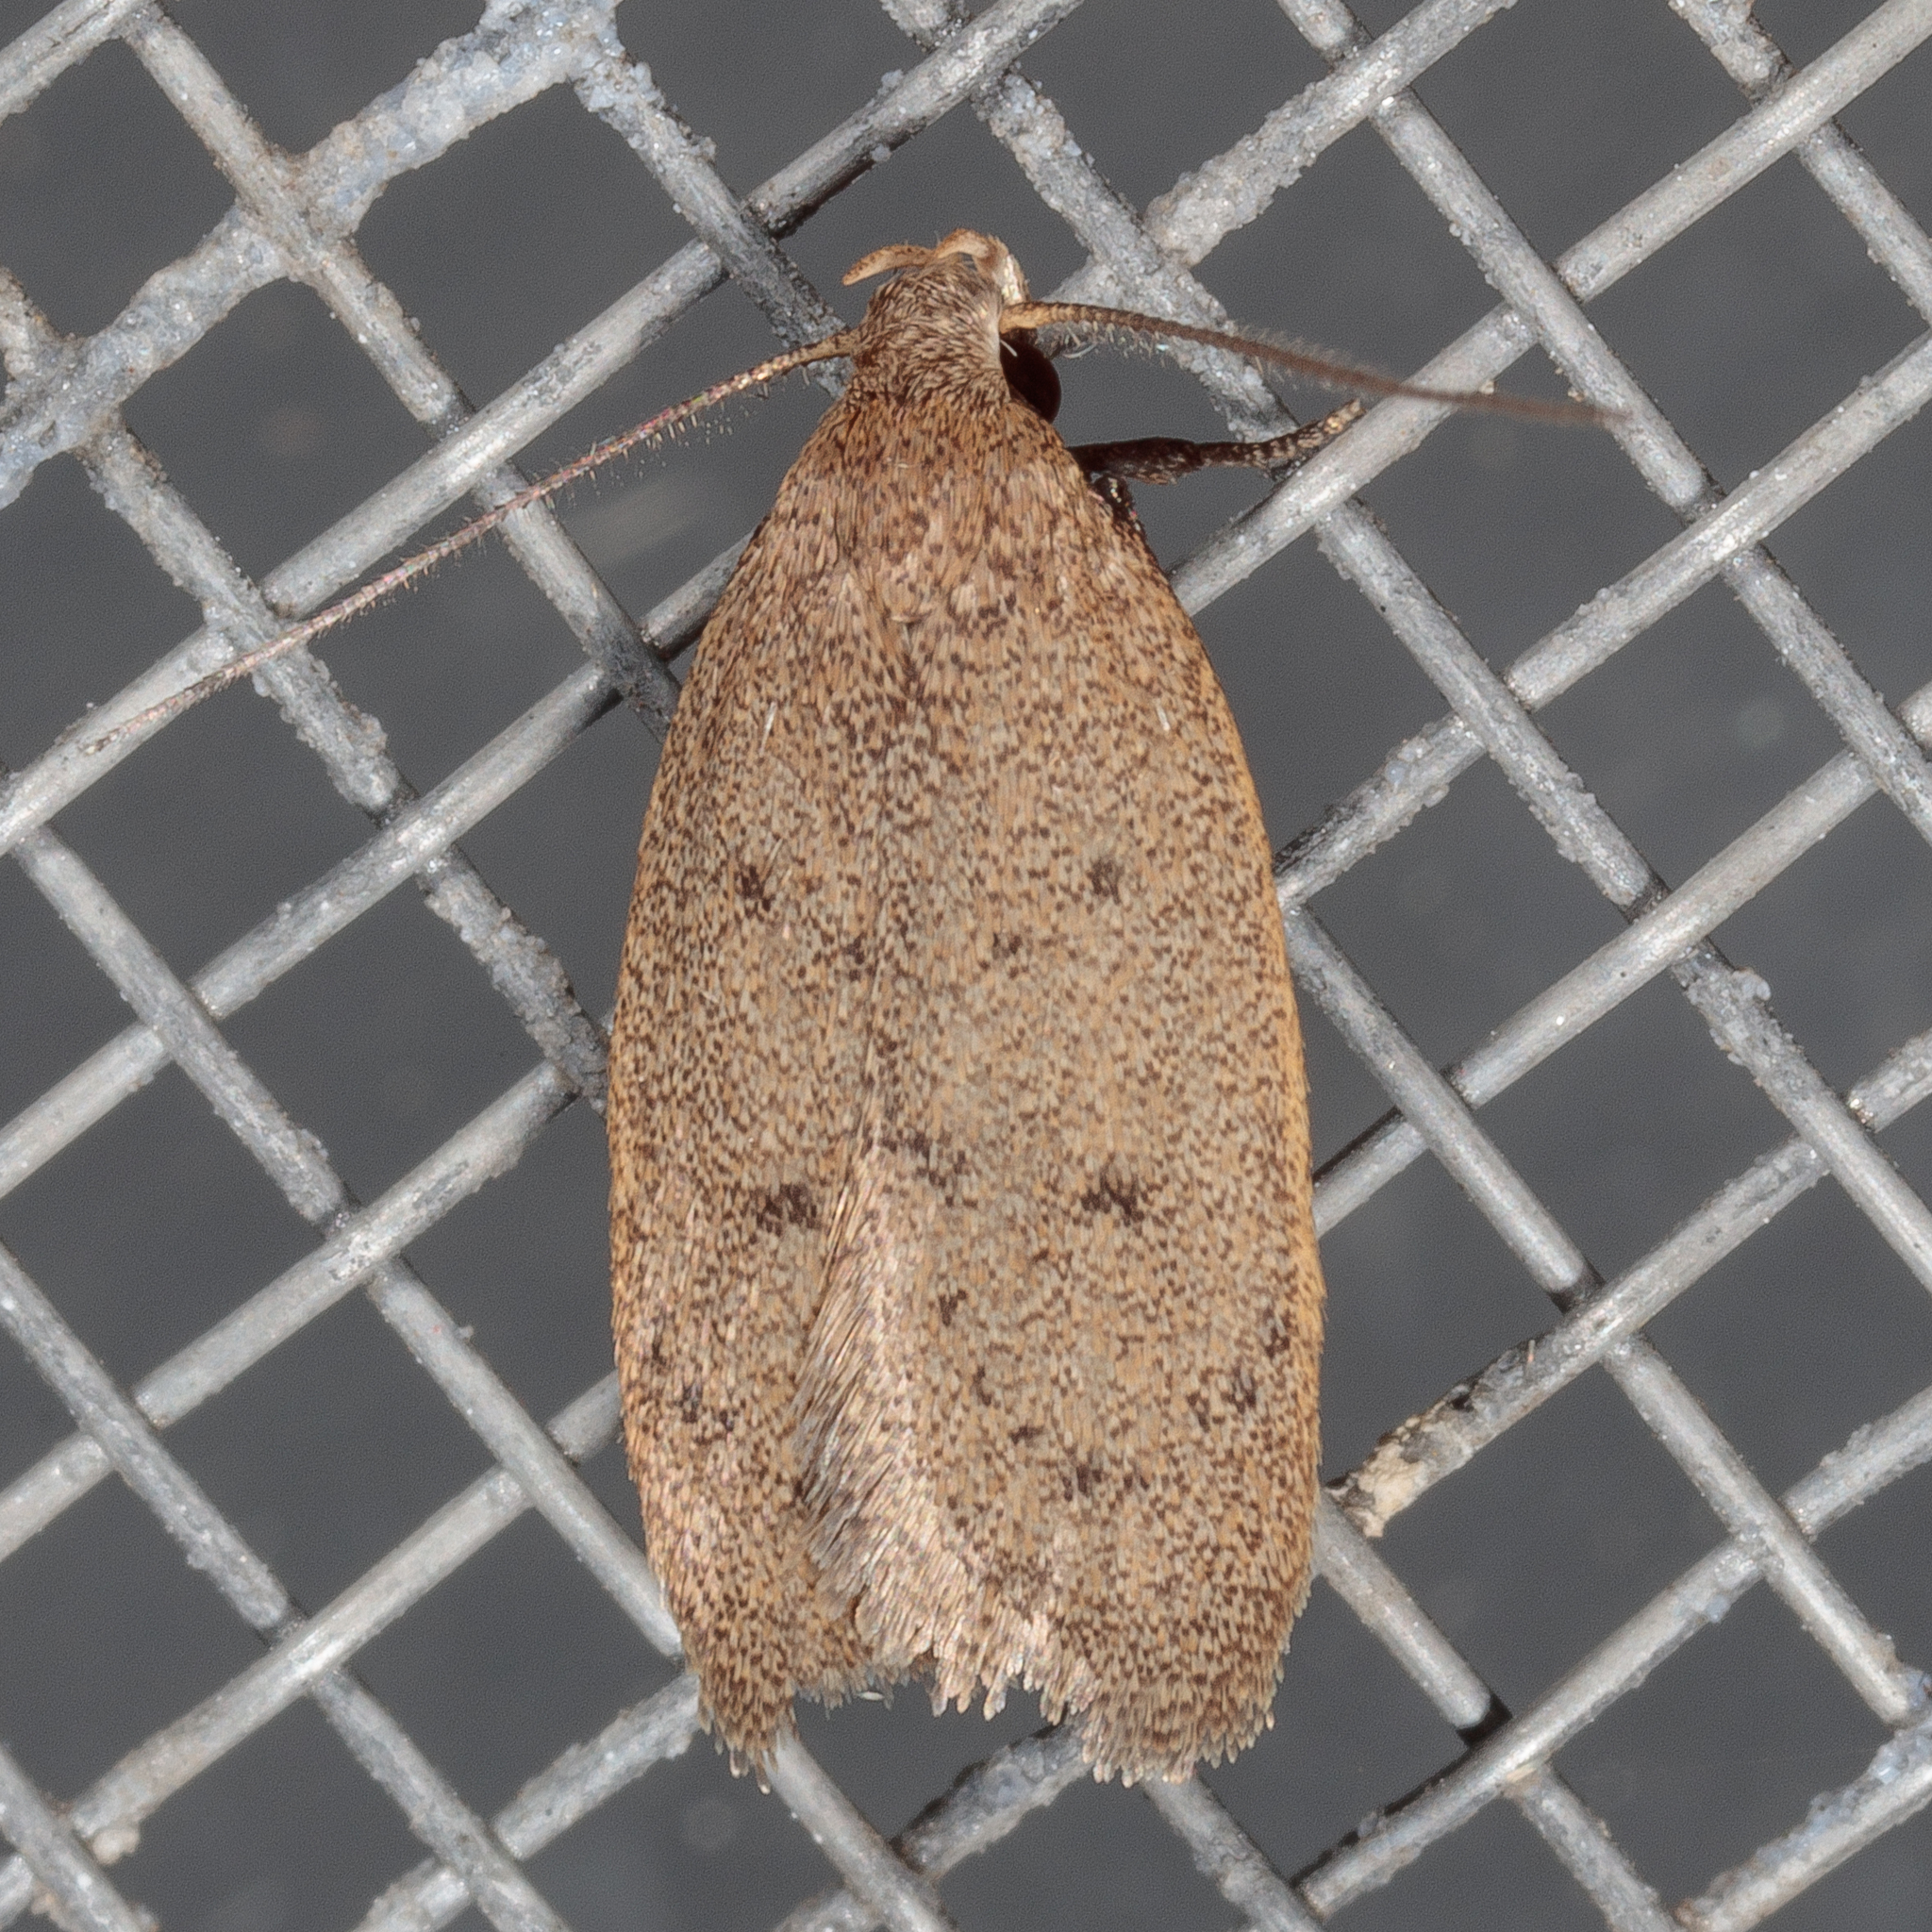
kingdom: Animalia
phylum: Arthropoda
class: Insecta
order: Lepidoptera
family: Oecophoridae
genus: Inga
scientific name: Inga obscuromaculella
